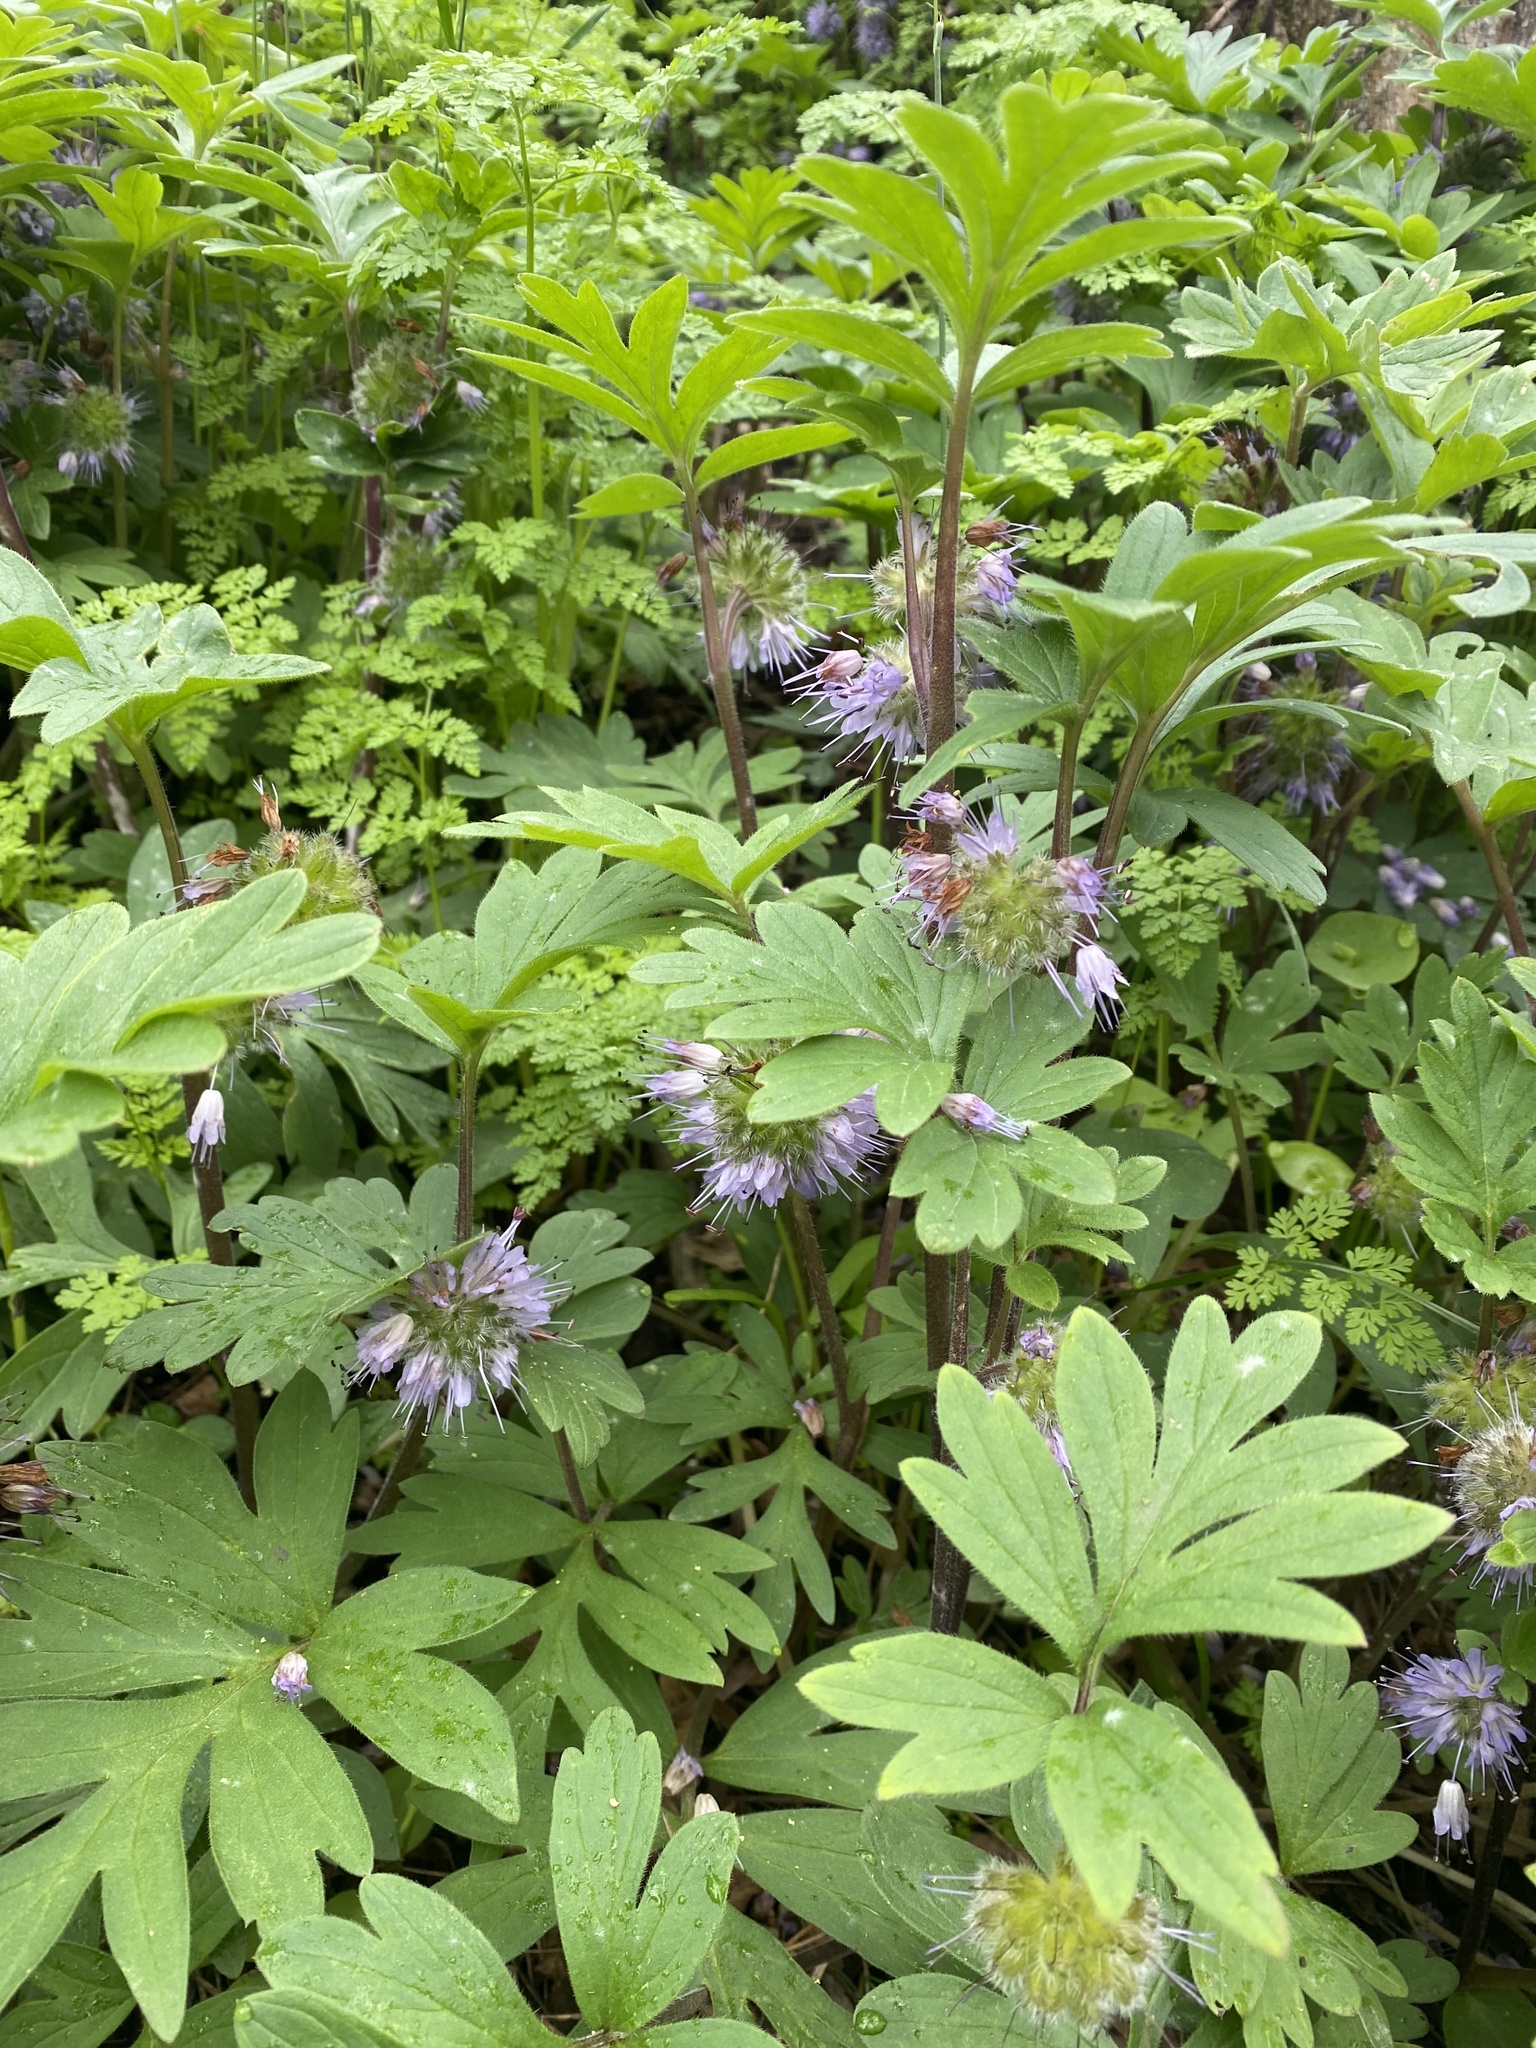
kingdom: Plantae
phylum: Tracheophyta
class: Magnoliopsida
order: Boraginales
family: Hydrophyllaceae
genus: Hydrophyllum
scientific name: Hydrophyllum capitatum
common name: Woollen-breeches
